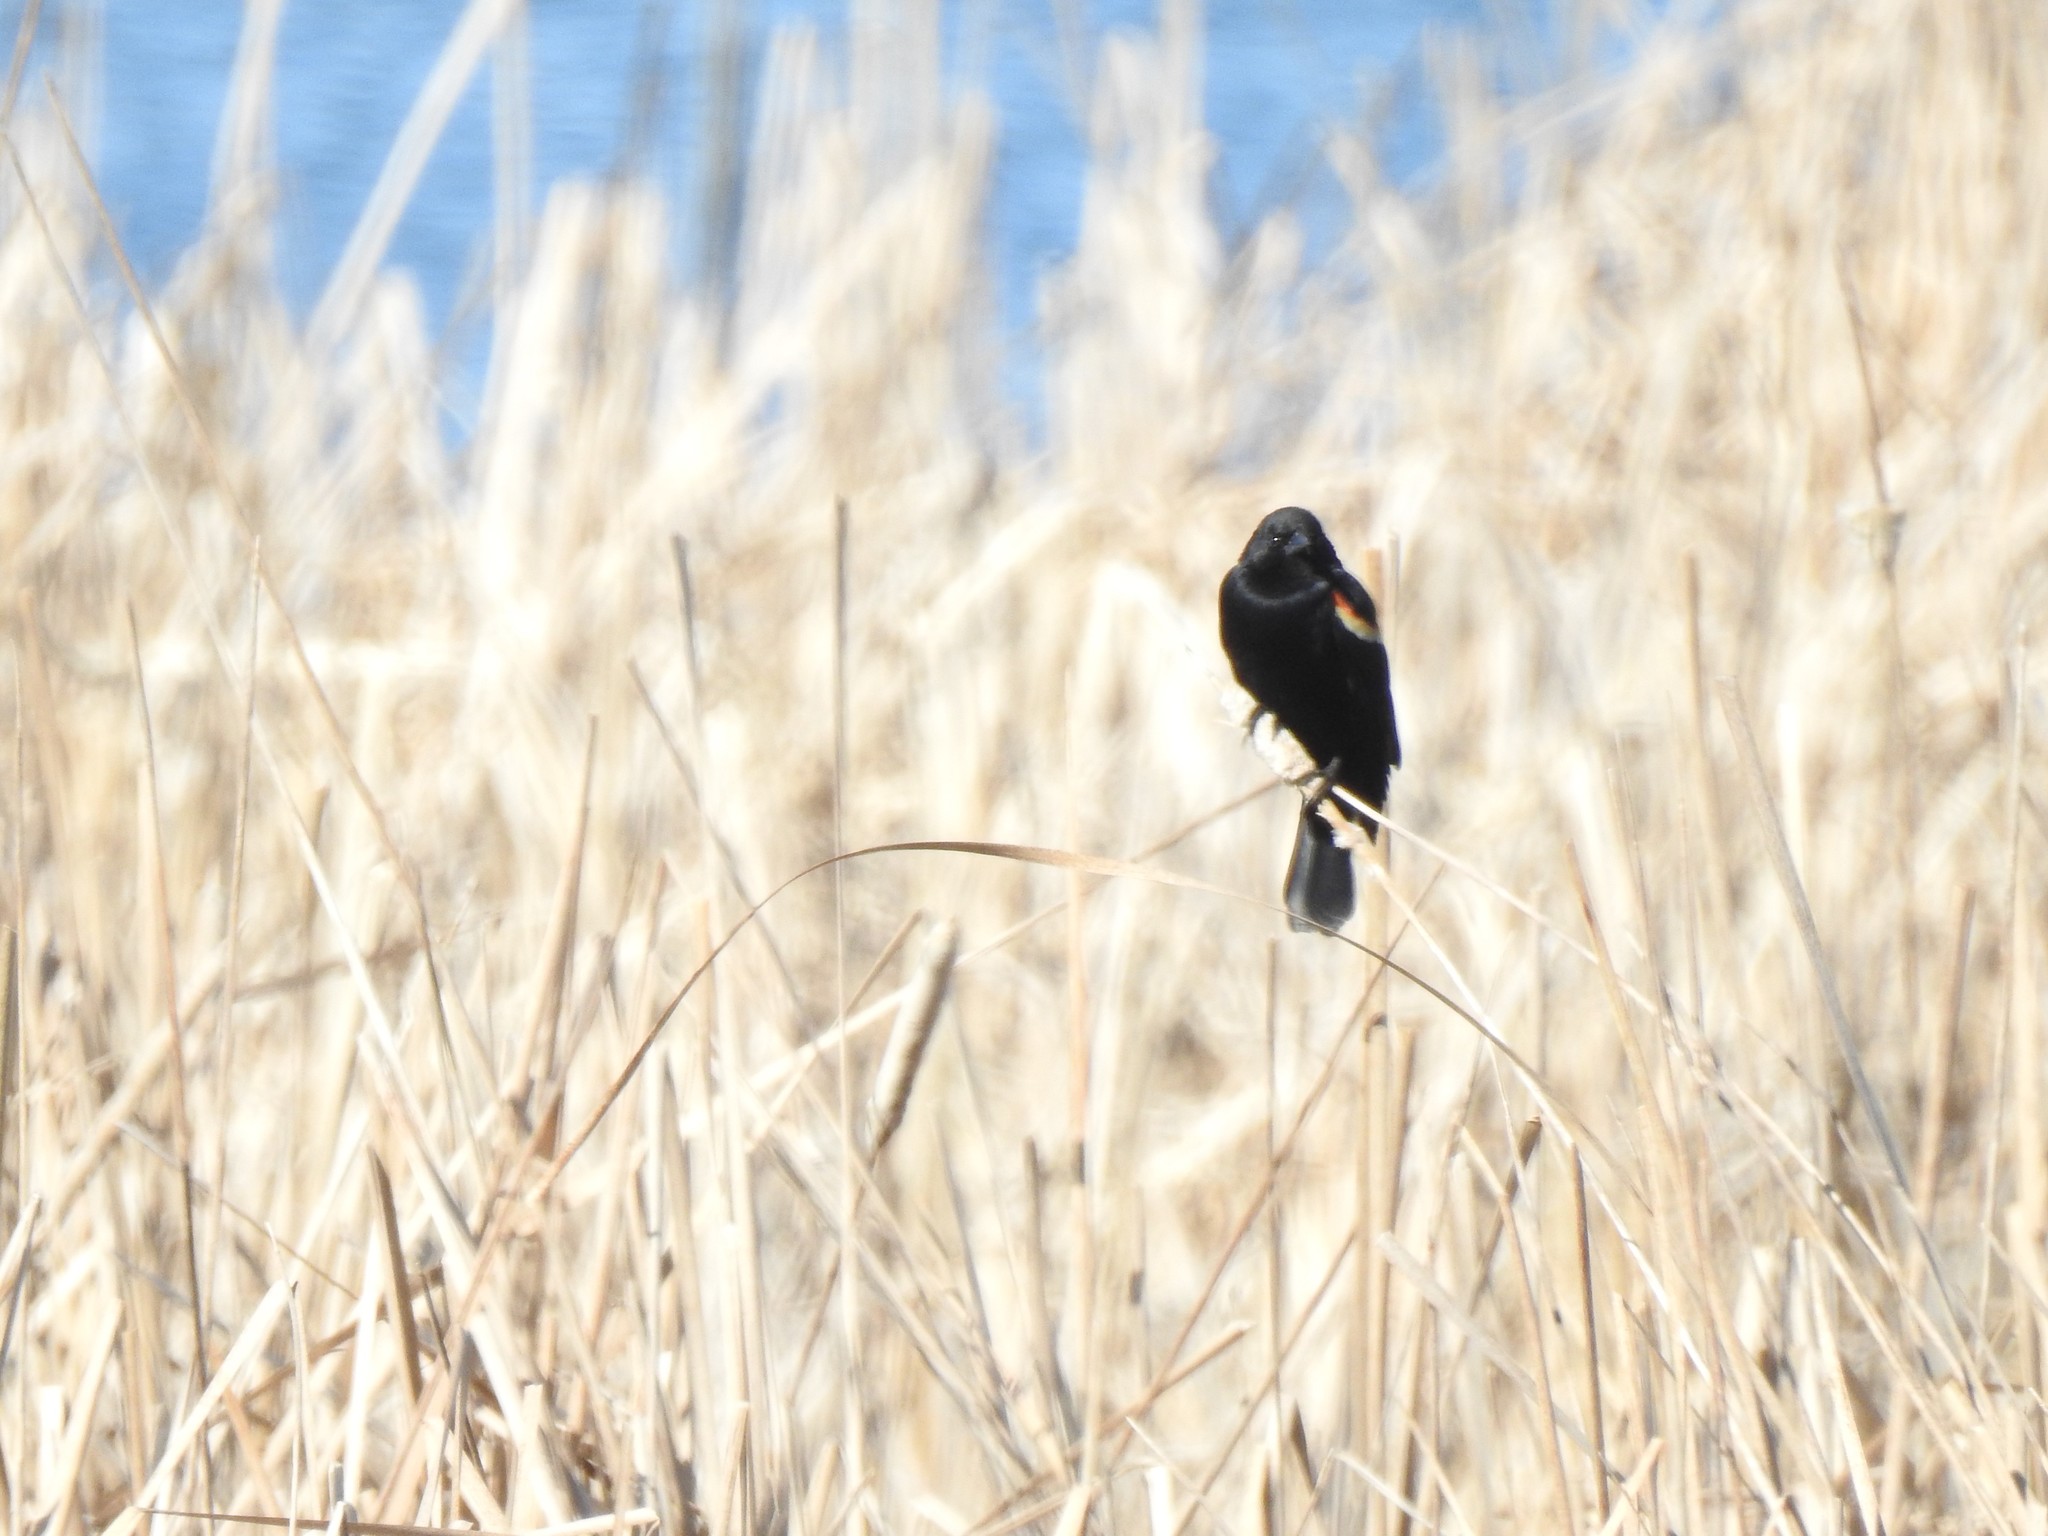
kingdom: Animalia
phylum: Chordata
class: Aves
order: Passeriformes
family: Icteridae
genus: Agelaius
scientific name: Agelaius phoeniceus
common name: Red-winged blackbird
